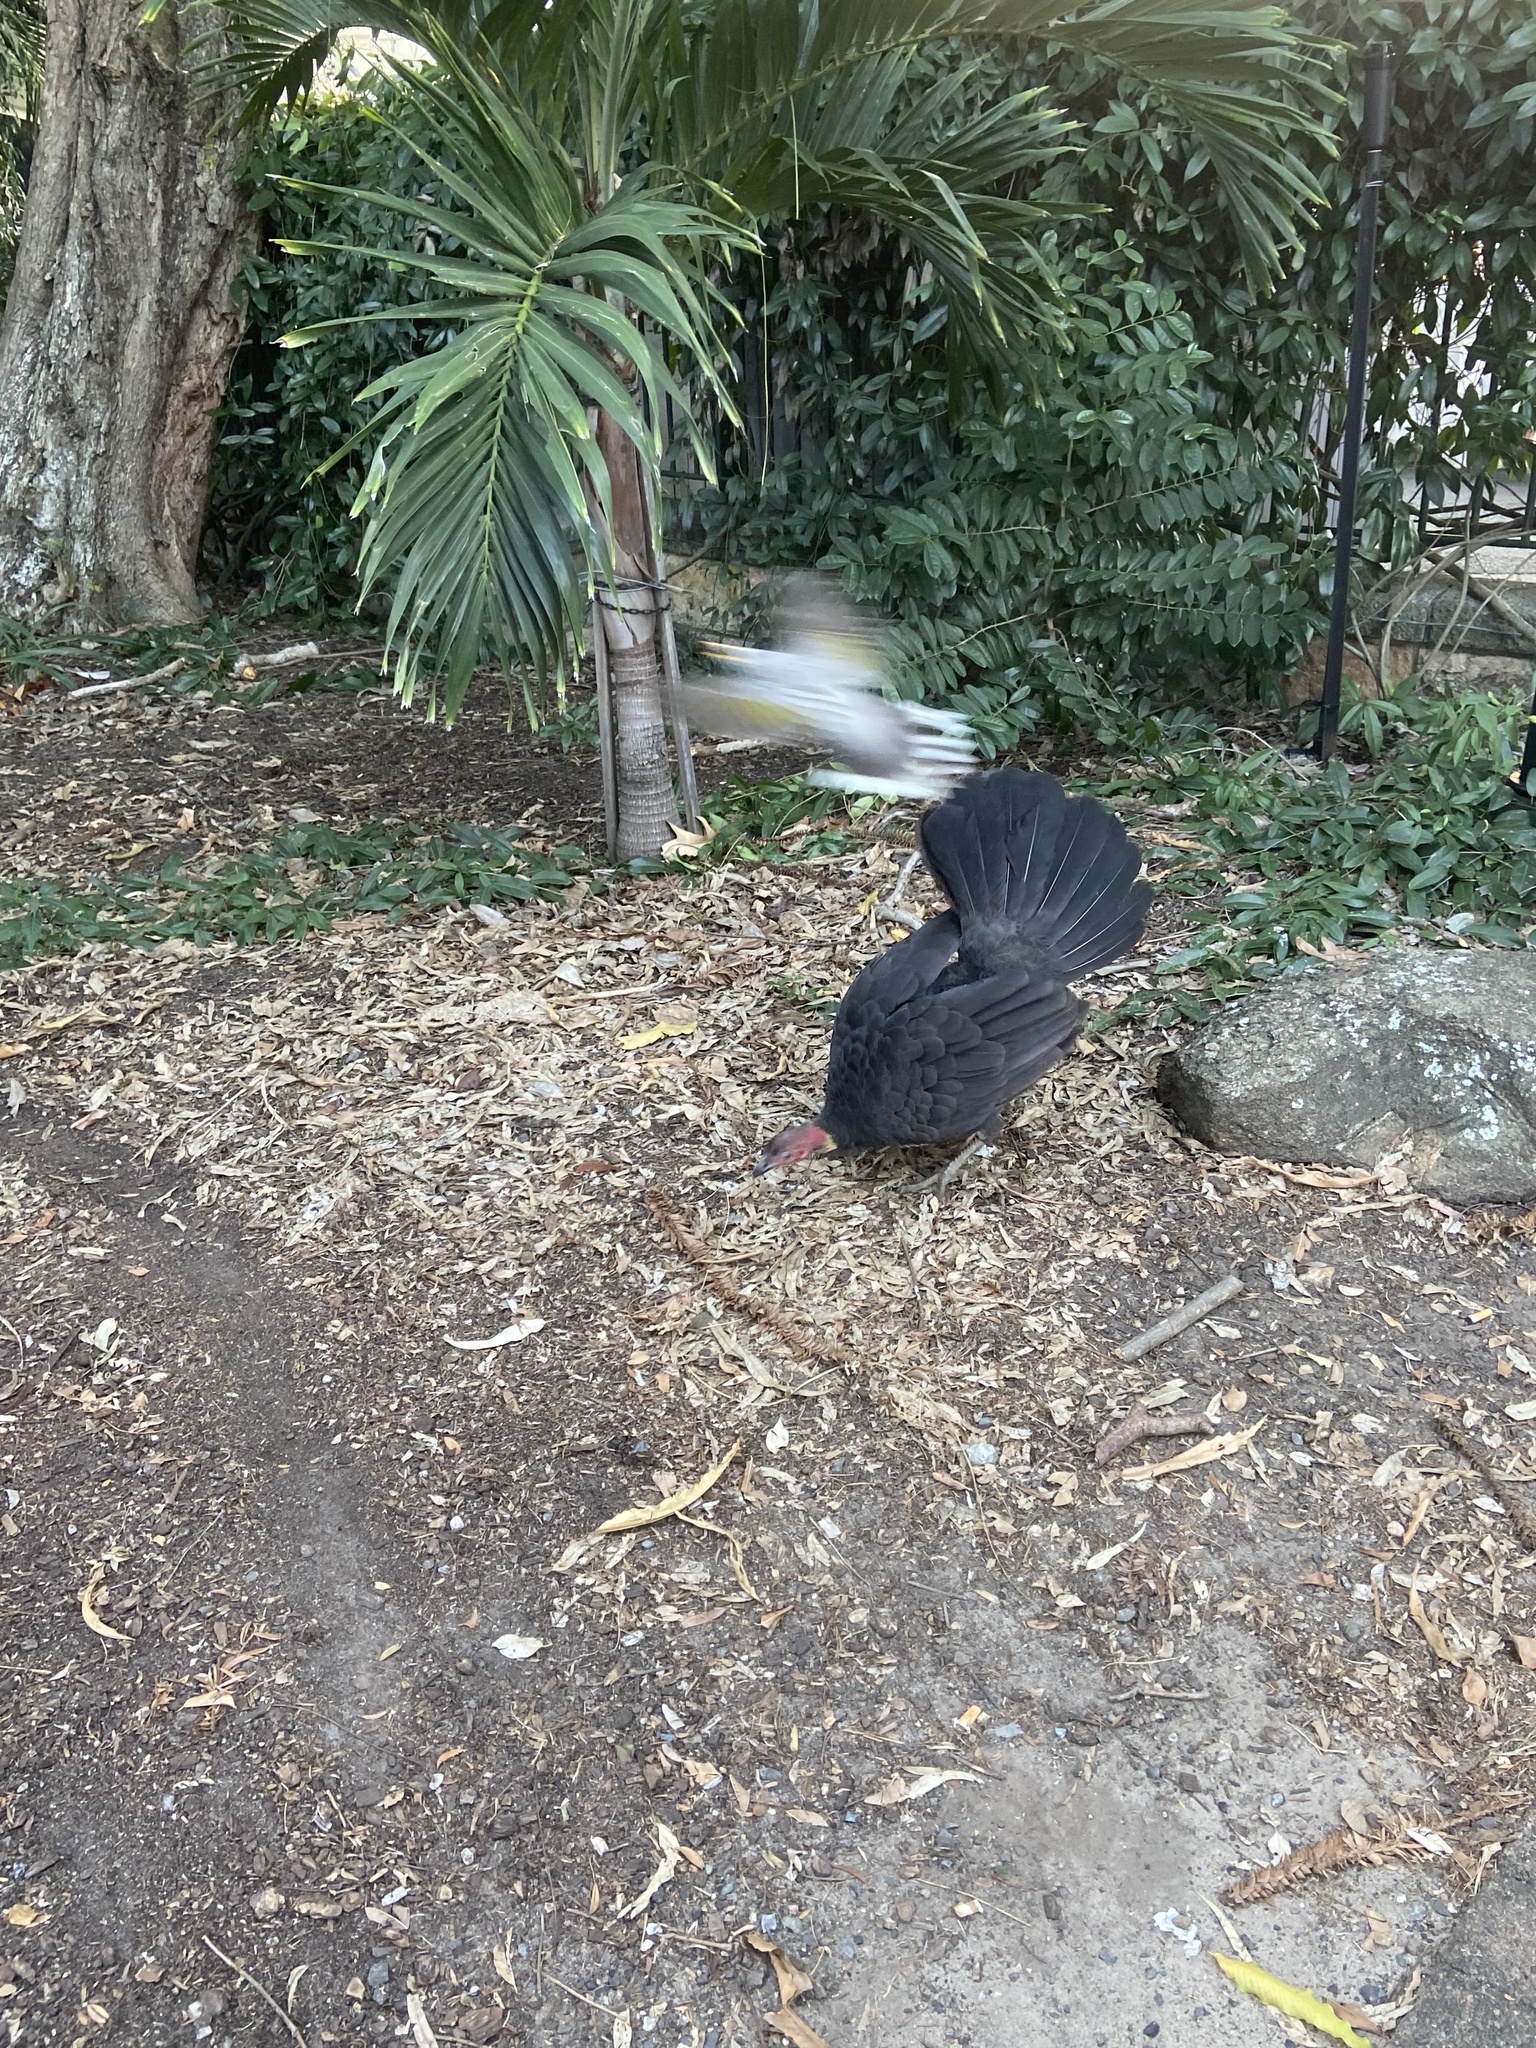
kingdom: Animalia
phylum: Chordata
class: Aves
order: Passeriformes
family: Meliphagidae
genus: Manorina
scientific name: Manorina melanocephala
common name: Noisy miner
